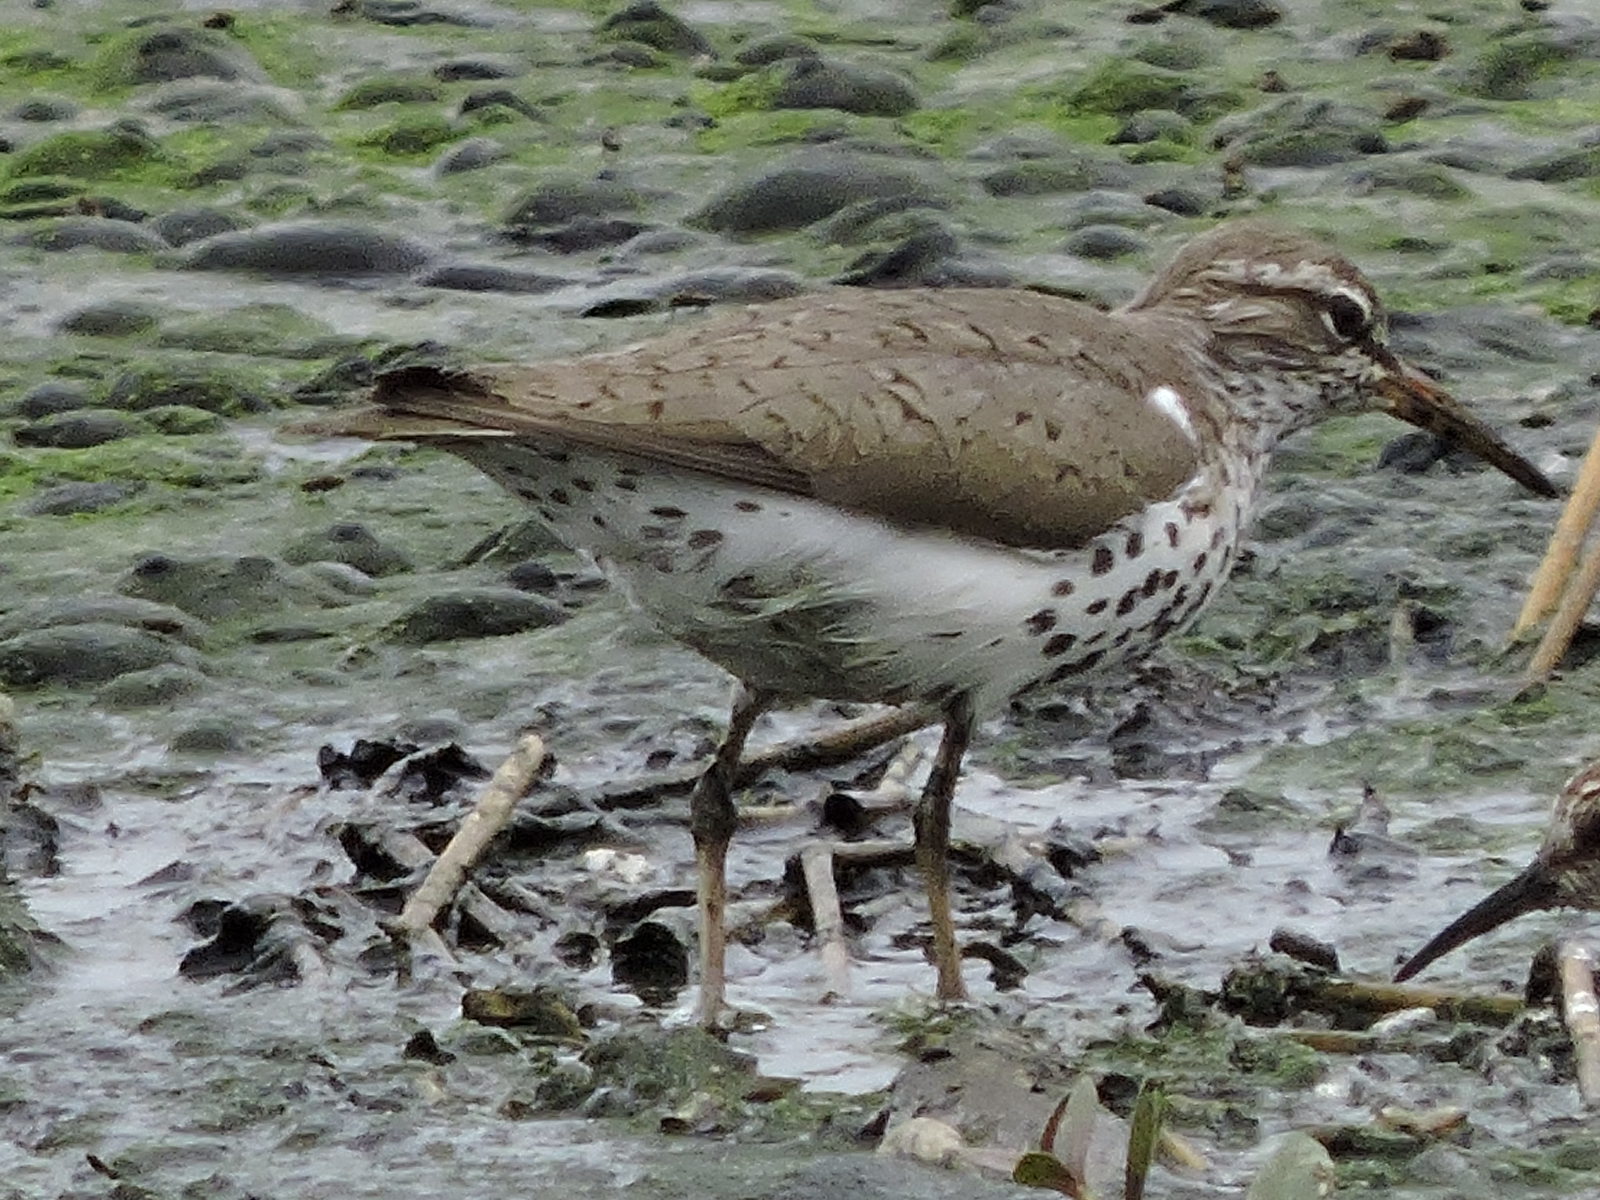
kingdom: Animalia
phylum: Chordata
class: Aves
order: Charadriiformes
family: Scolopacidae
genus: Actitis
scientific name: Actitis macularius
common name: Spotted sandpiper
